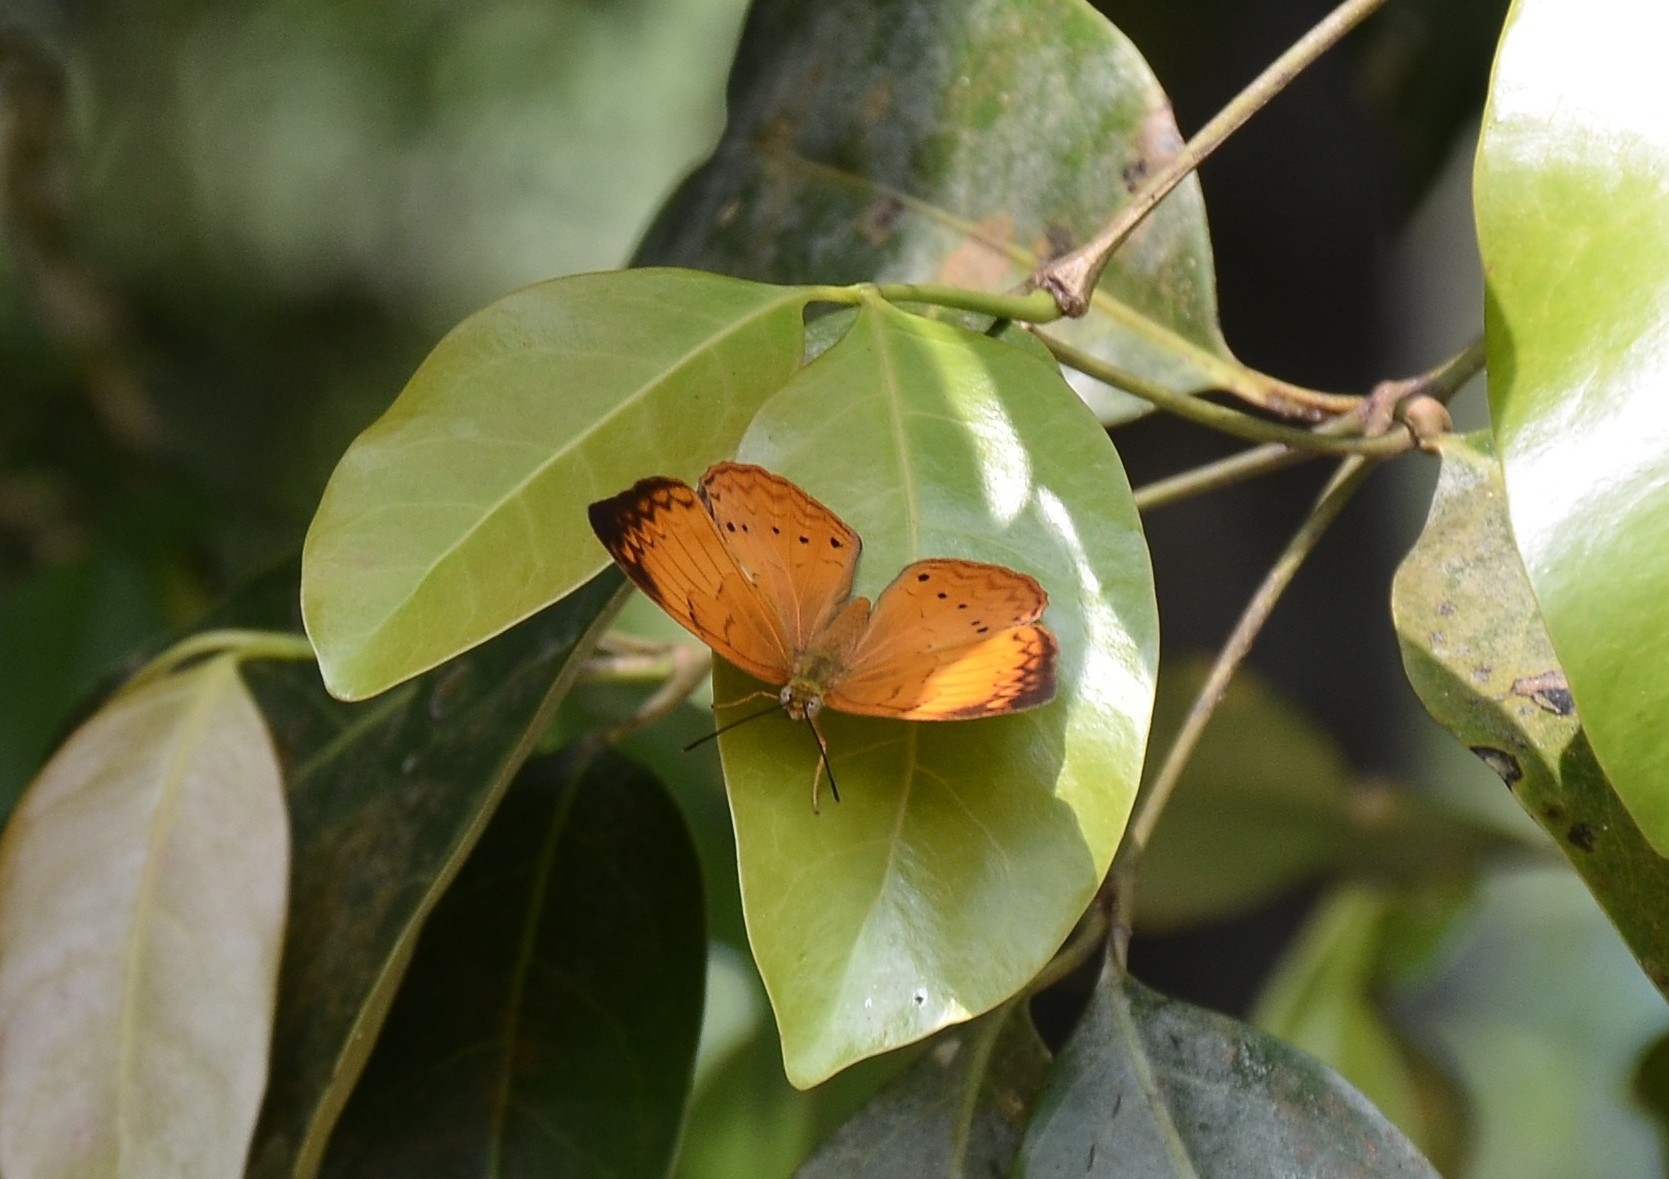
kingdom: Animalia
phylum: Arthropoda
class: Insecta
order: Lepidoptera
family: Nymphalidae
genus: Cirrochroa
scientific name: Cirrochroa thais
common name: Tamil yeoman
